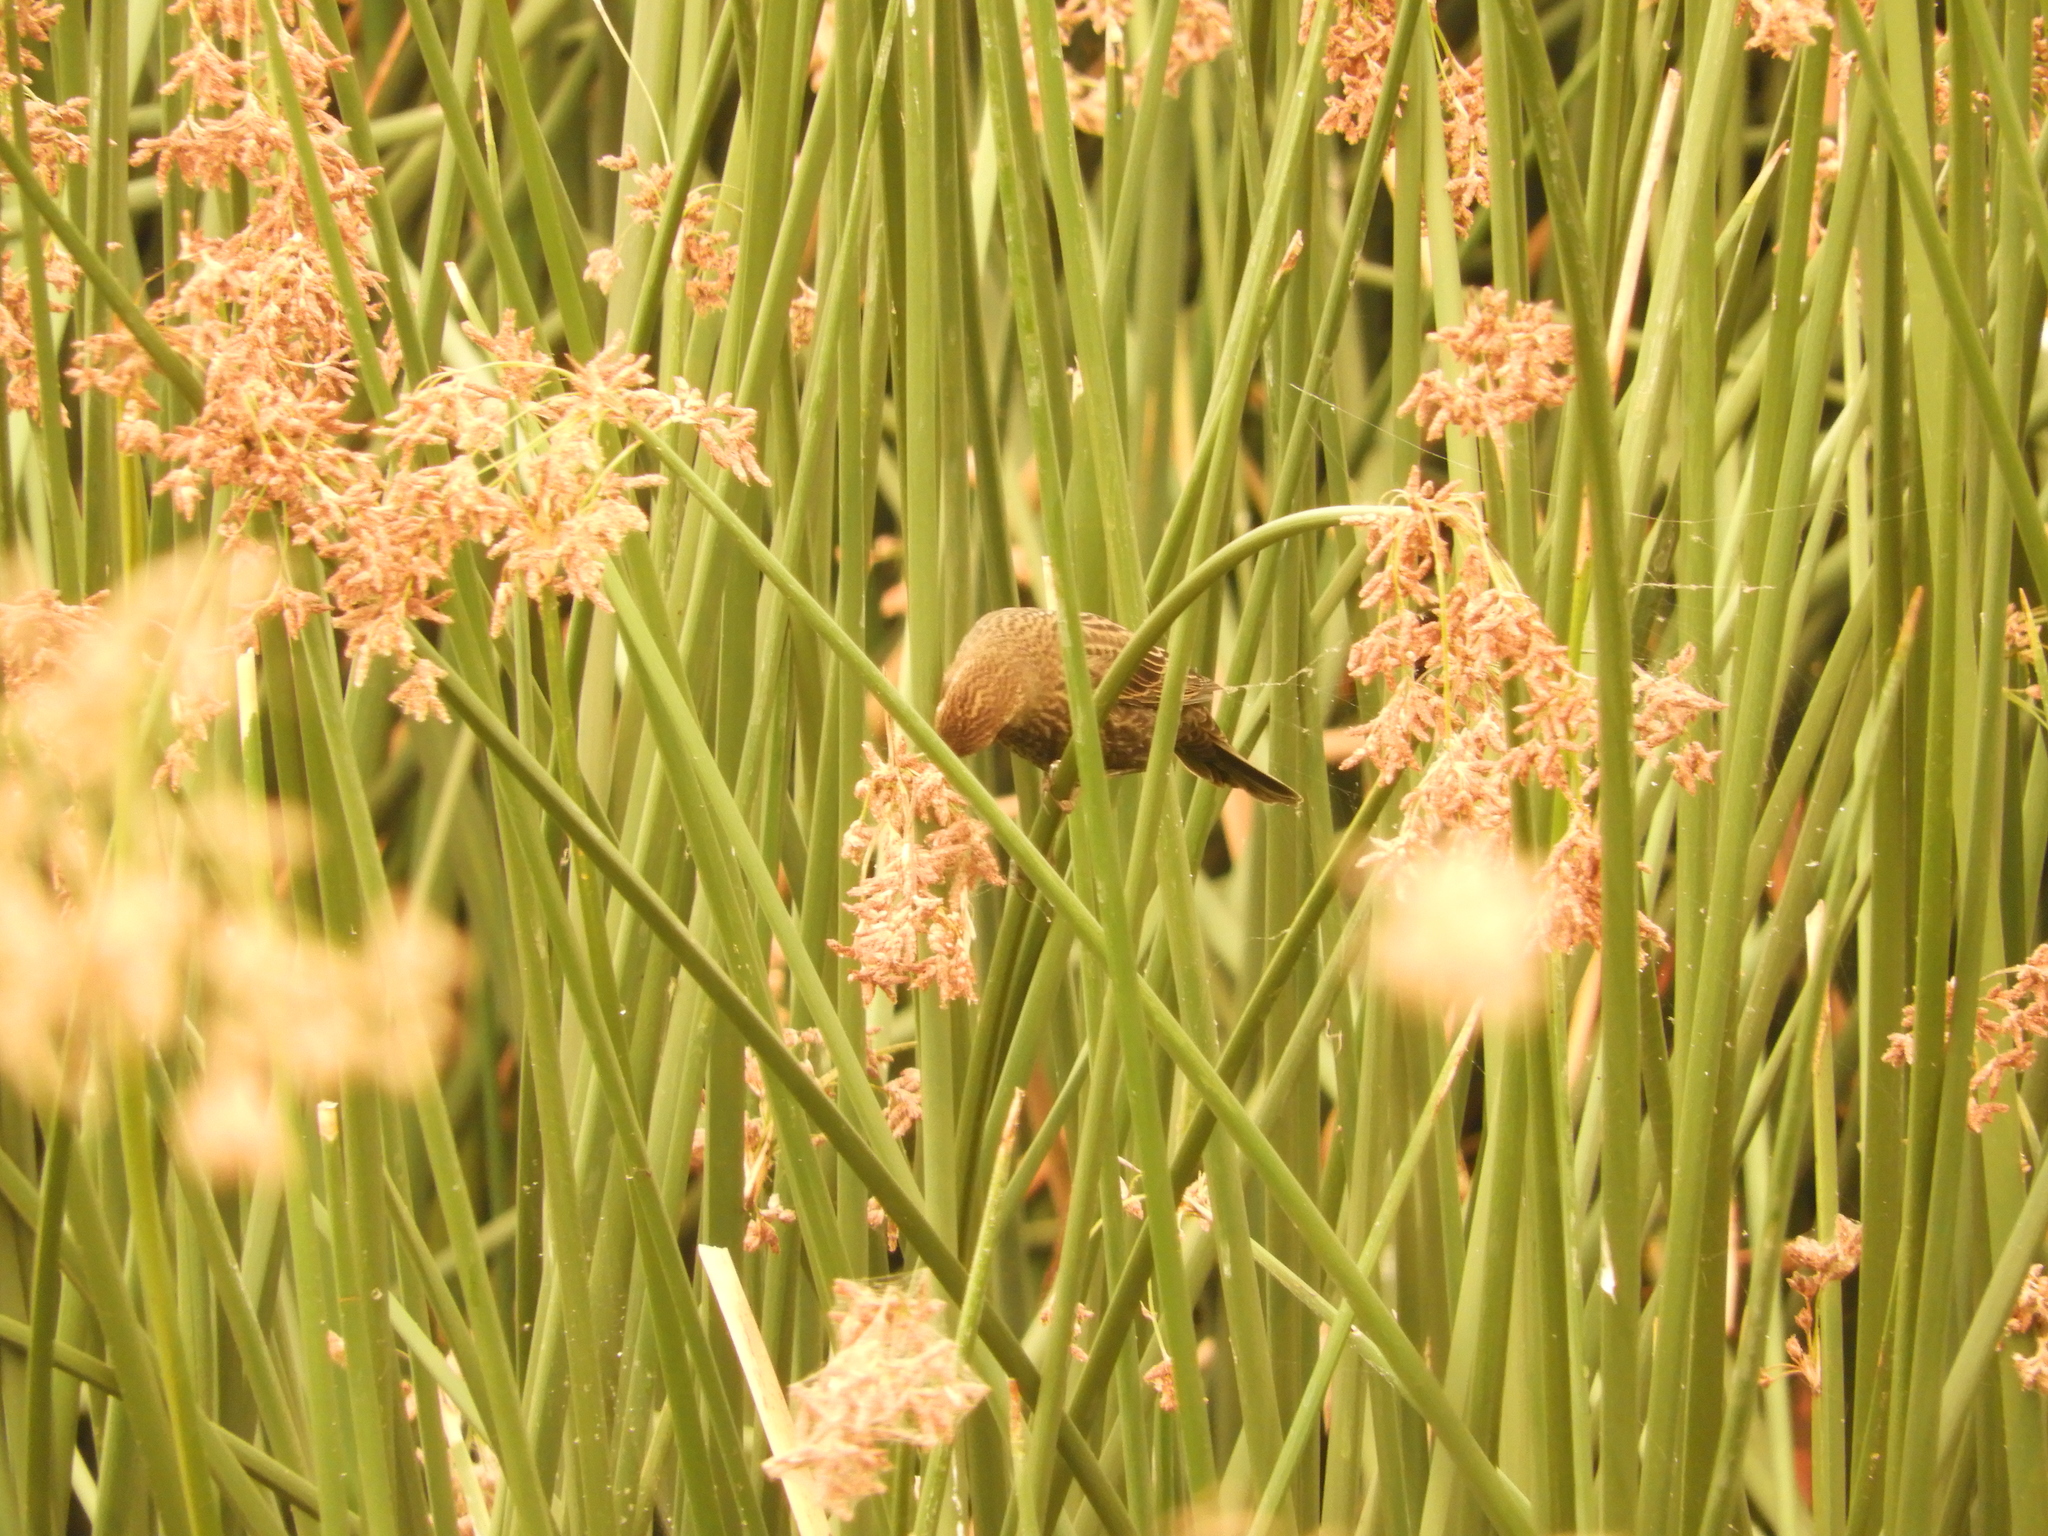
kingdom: Animalia
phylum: Chordata
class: Aves
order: Passeriformes
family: Icteridae
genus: Agelaius
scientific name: Agelaius phoeniceus
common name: Red-winged blackbird
